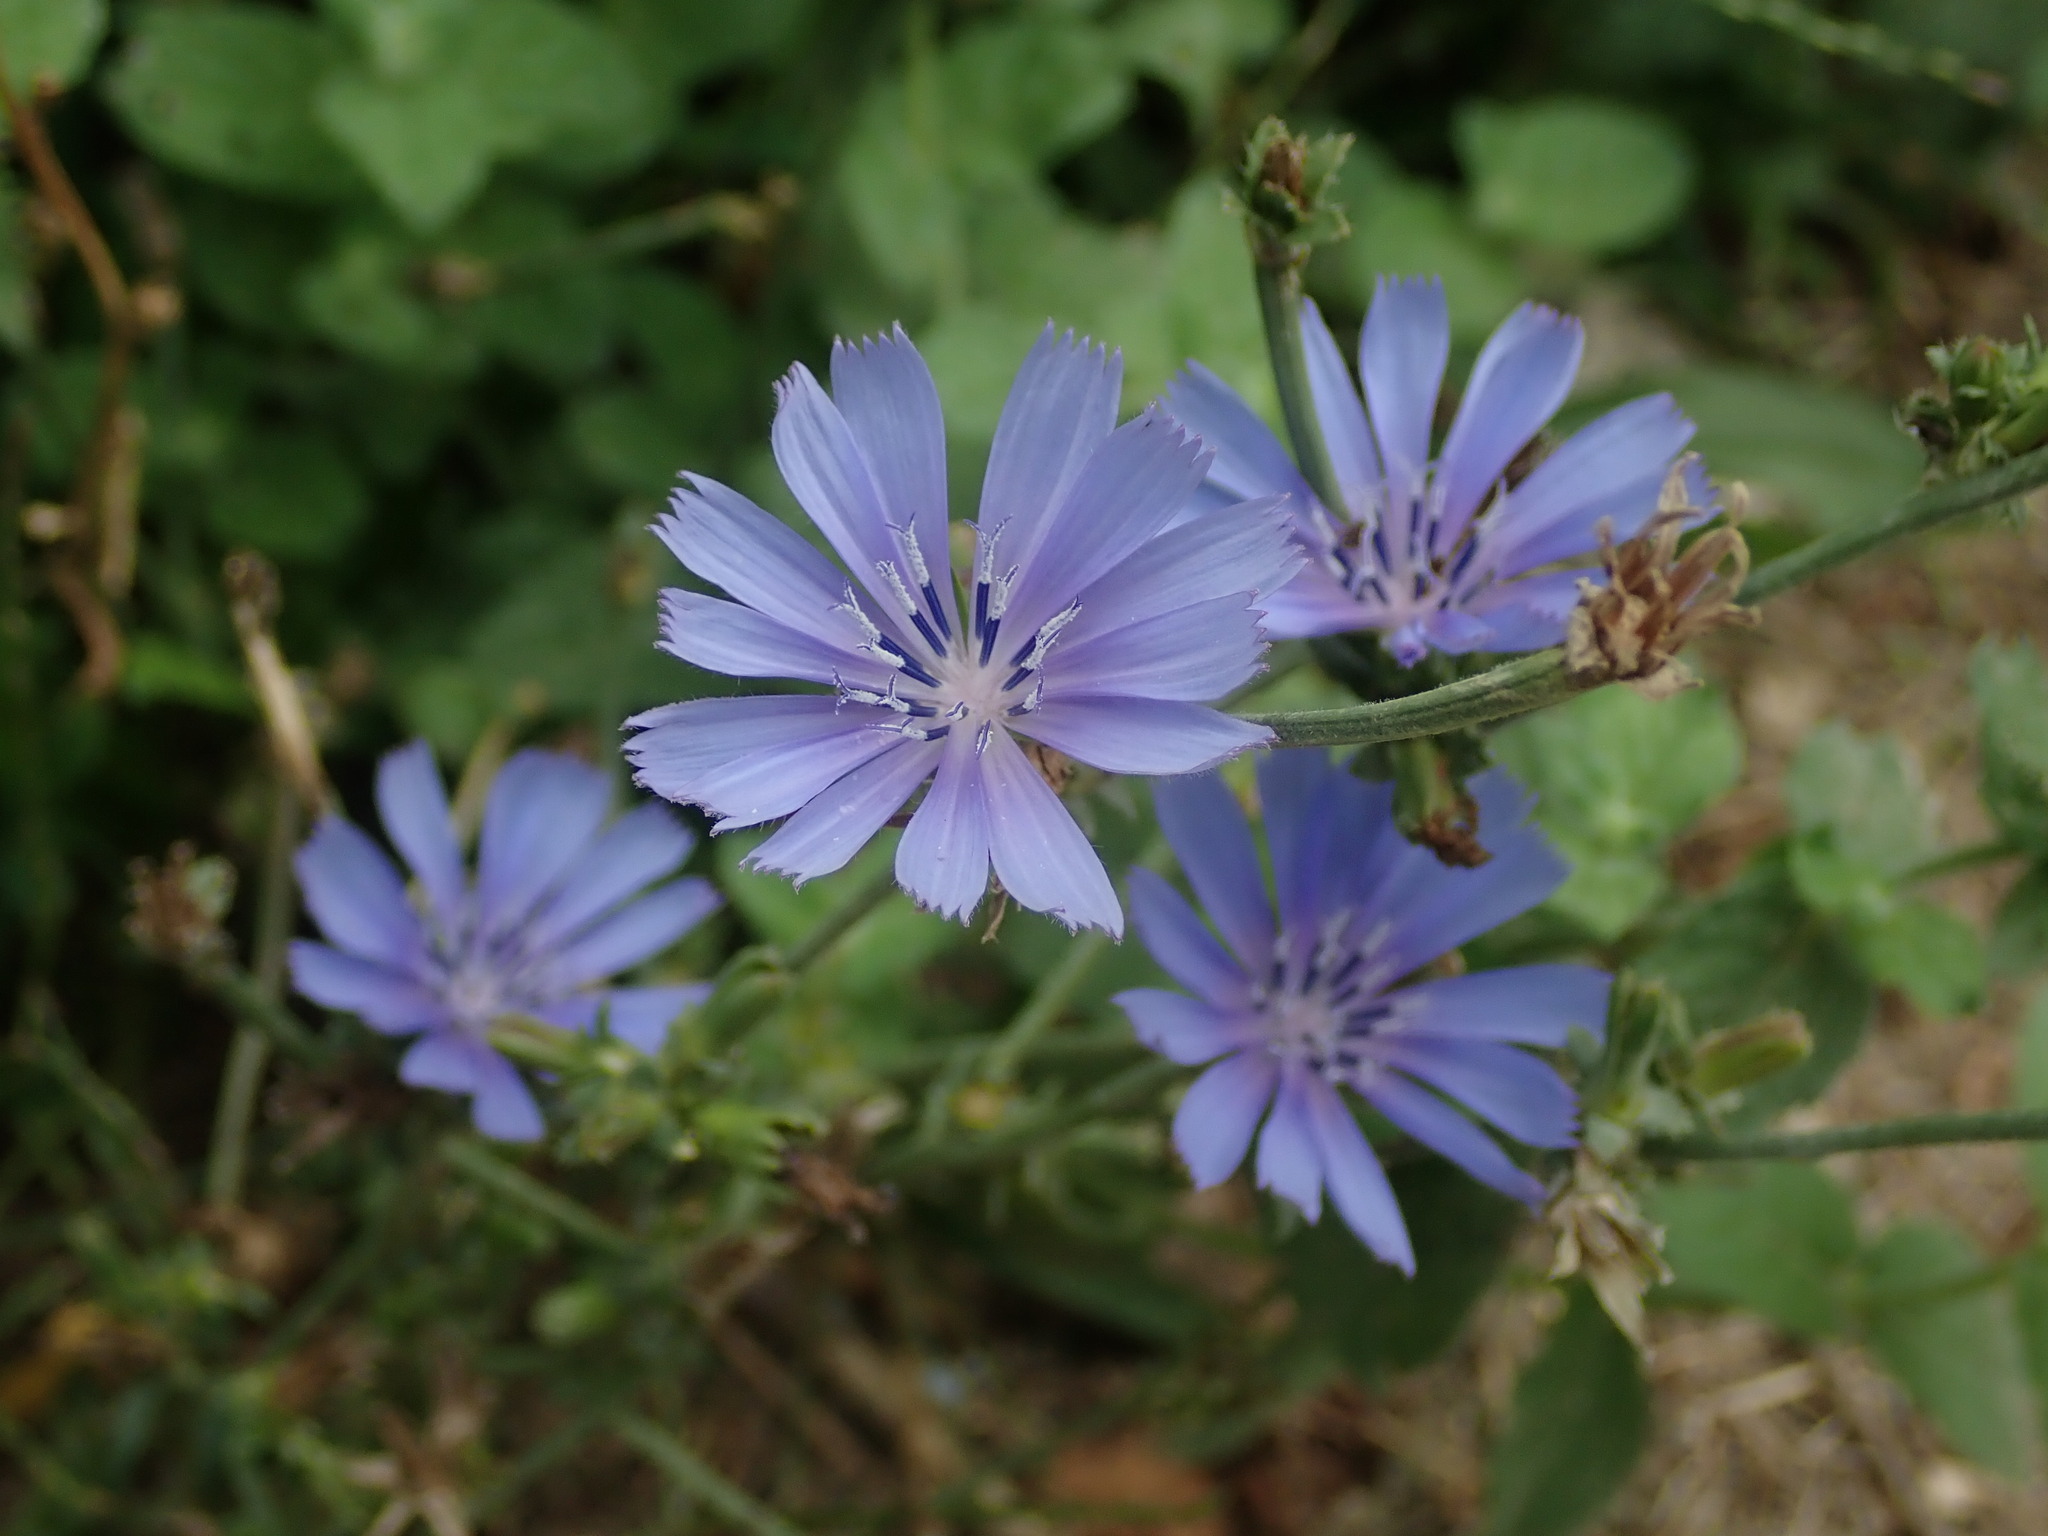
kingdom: Plantae
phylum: Tracheophyta
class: Magnoliopsida
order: Asterales
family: Asteraceae
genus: Cichorium
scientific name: Cichorium intybus
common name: Chicory
